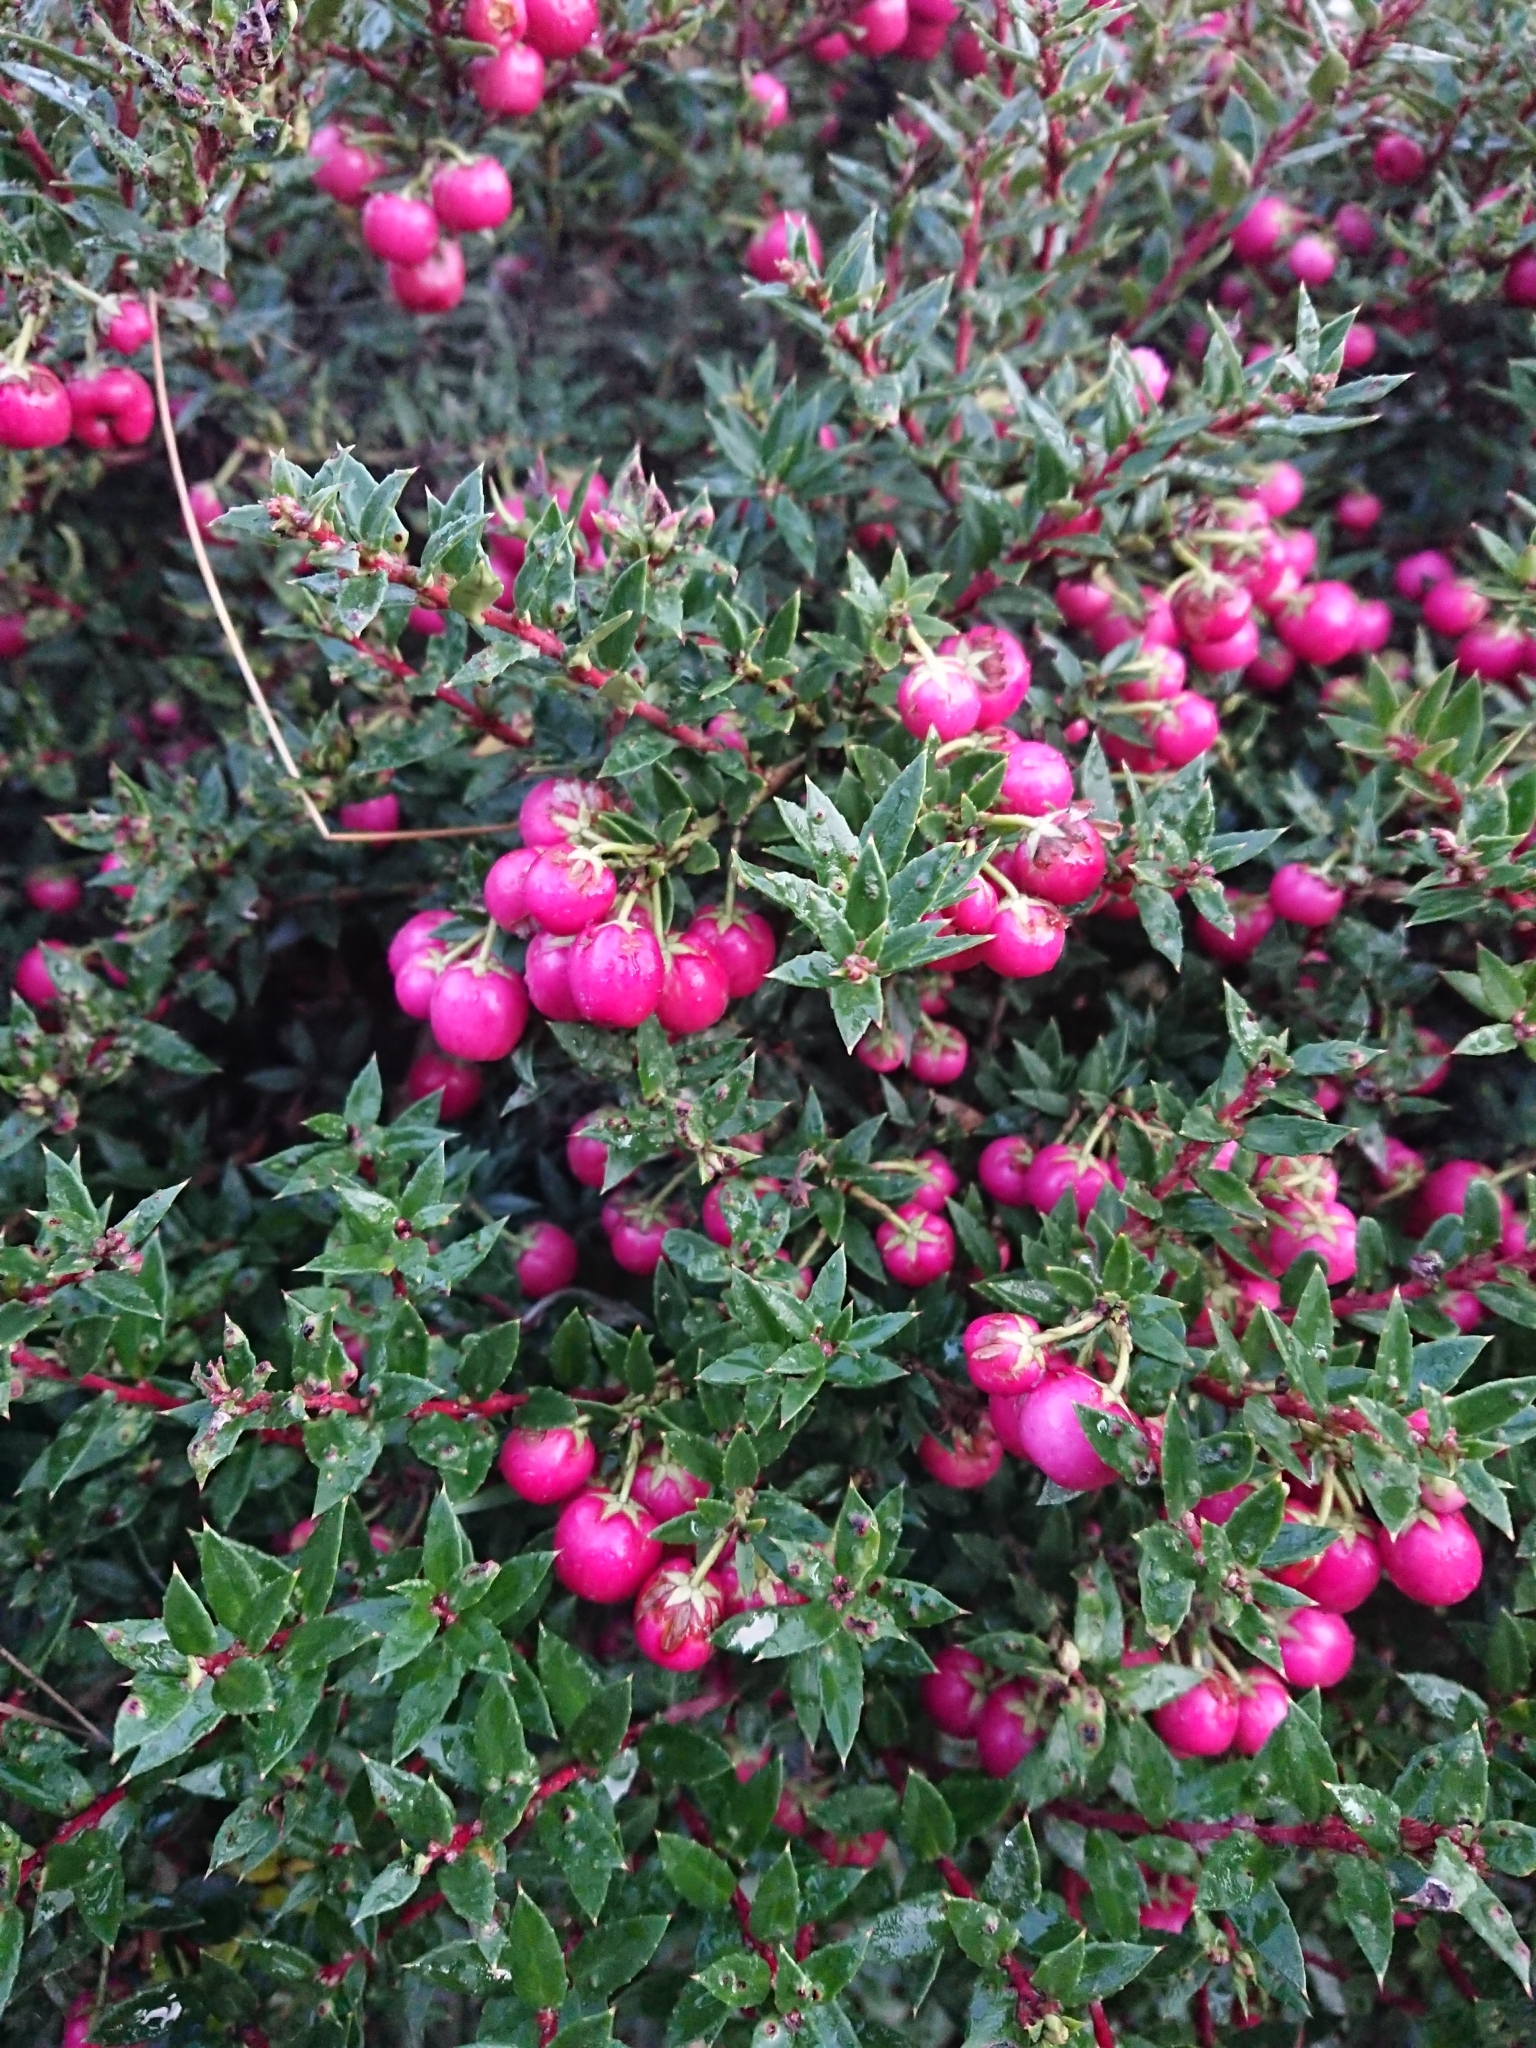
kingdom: Plantae
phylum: Tracheophyta
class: Magnoliopsida
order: Ericales
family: Ericaceae
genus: Gaultheria
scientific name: Gaultheria mucronata
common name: Prickly heath
